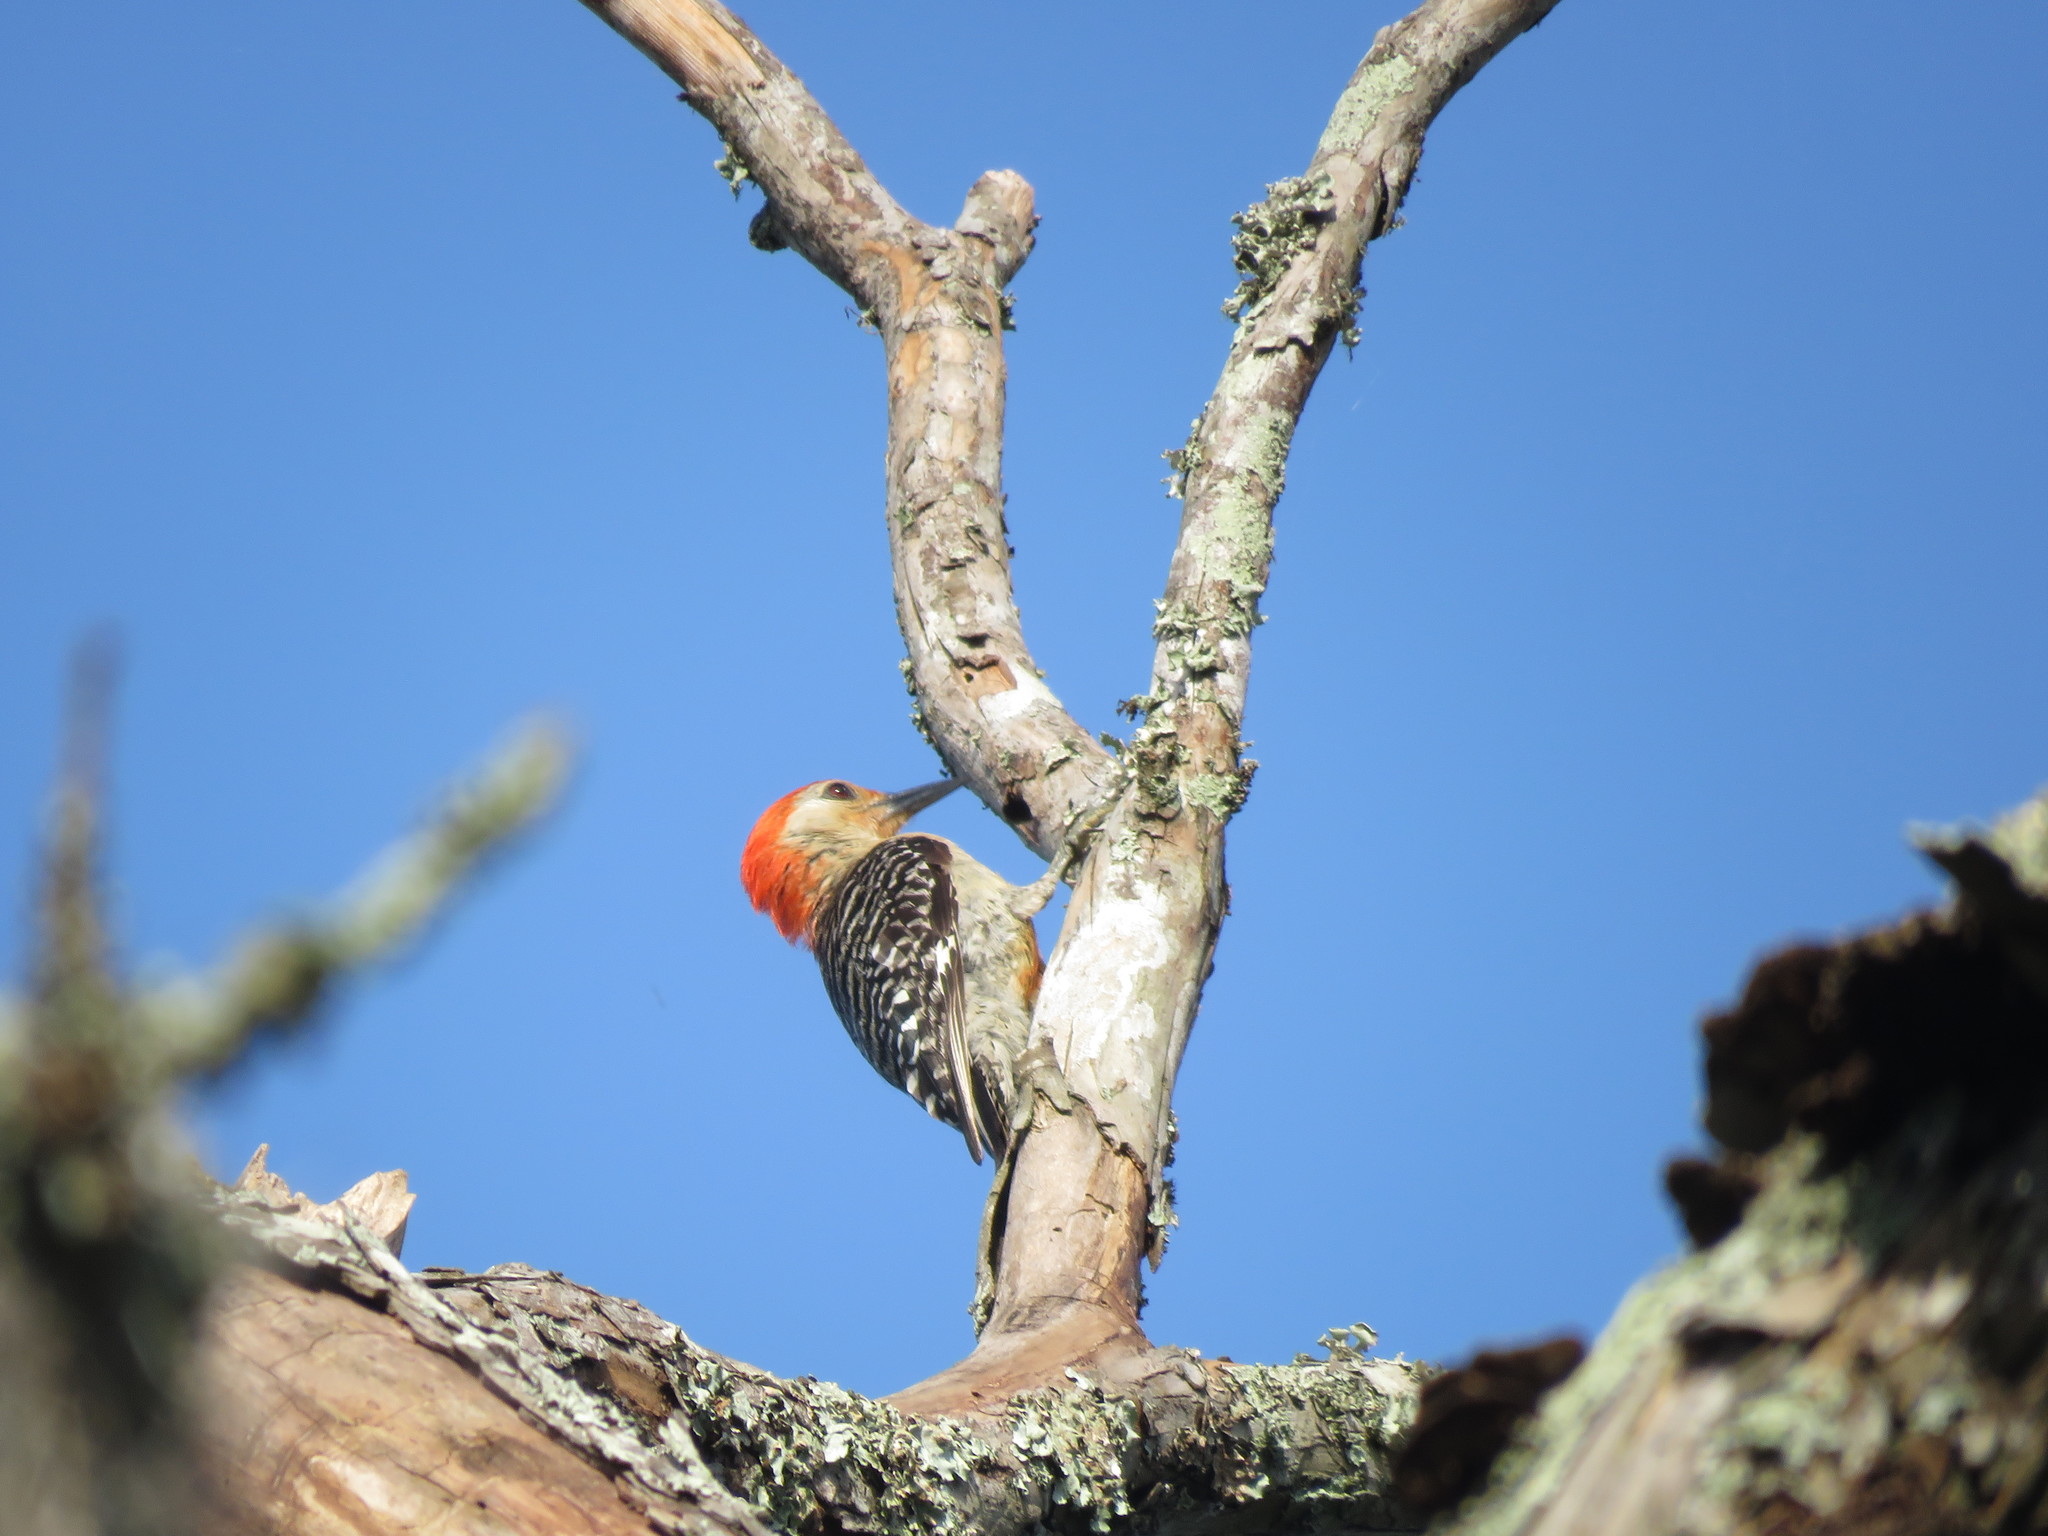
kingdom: Animalia
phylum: Chordata
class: Aves
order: Piciformes
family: Picidae
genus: Melanerpes
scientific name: Melanerpes carolinus
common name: Red-bellied woodpecker
